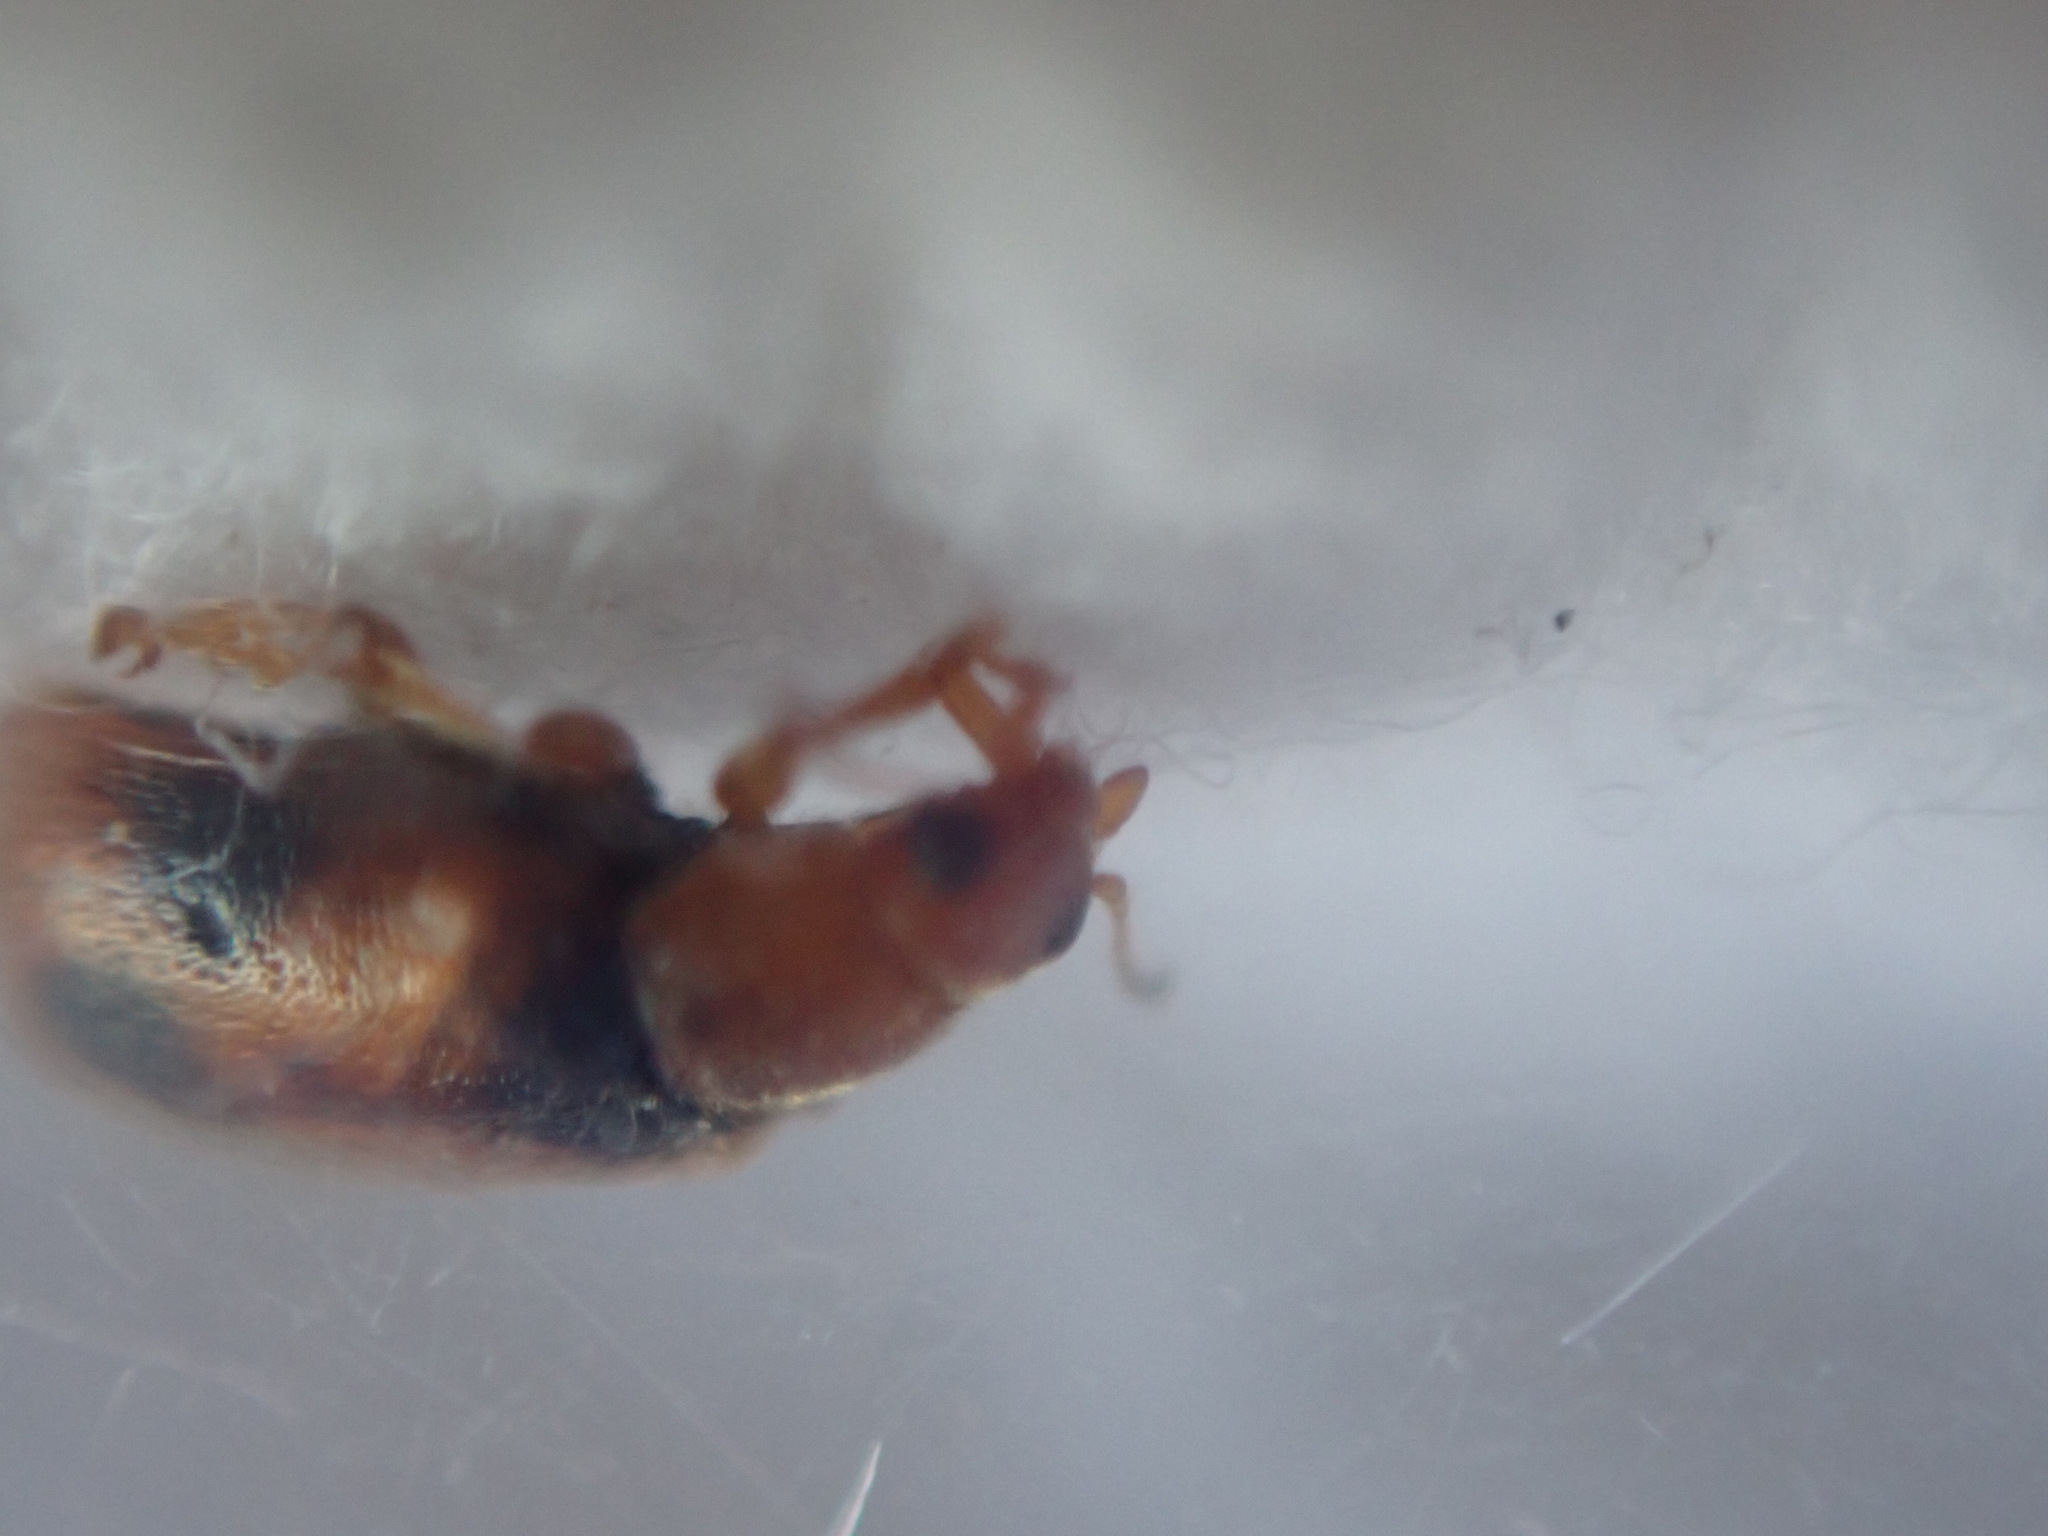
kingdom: Animalia
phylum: Arthropoda
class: Insecta
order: Coleoptera
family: Coccinellidae
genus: Coccidula
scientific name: Coccidula scutellata
